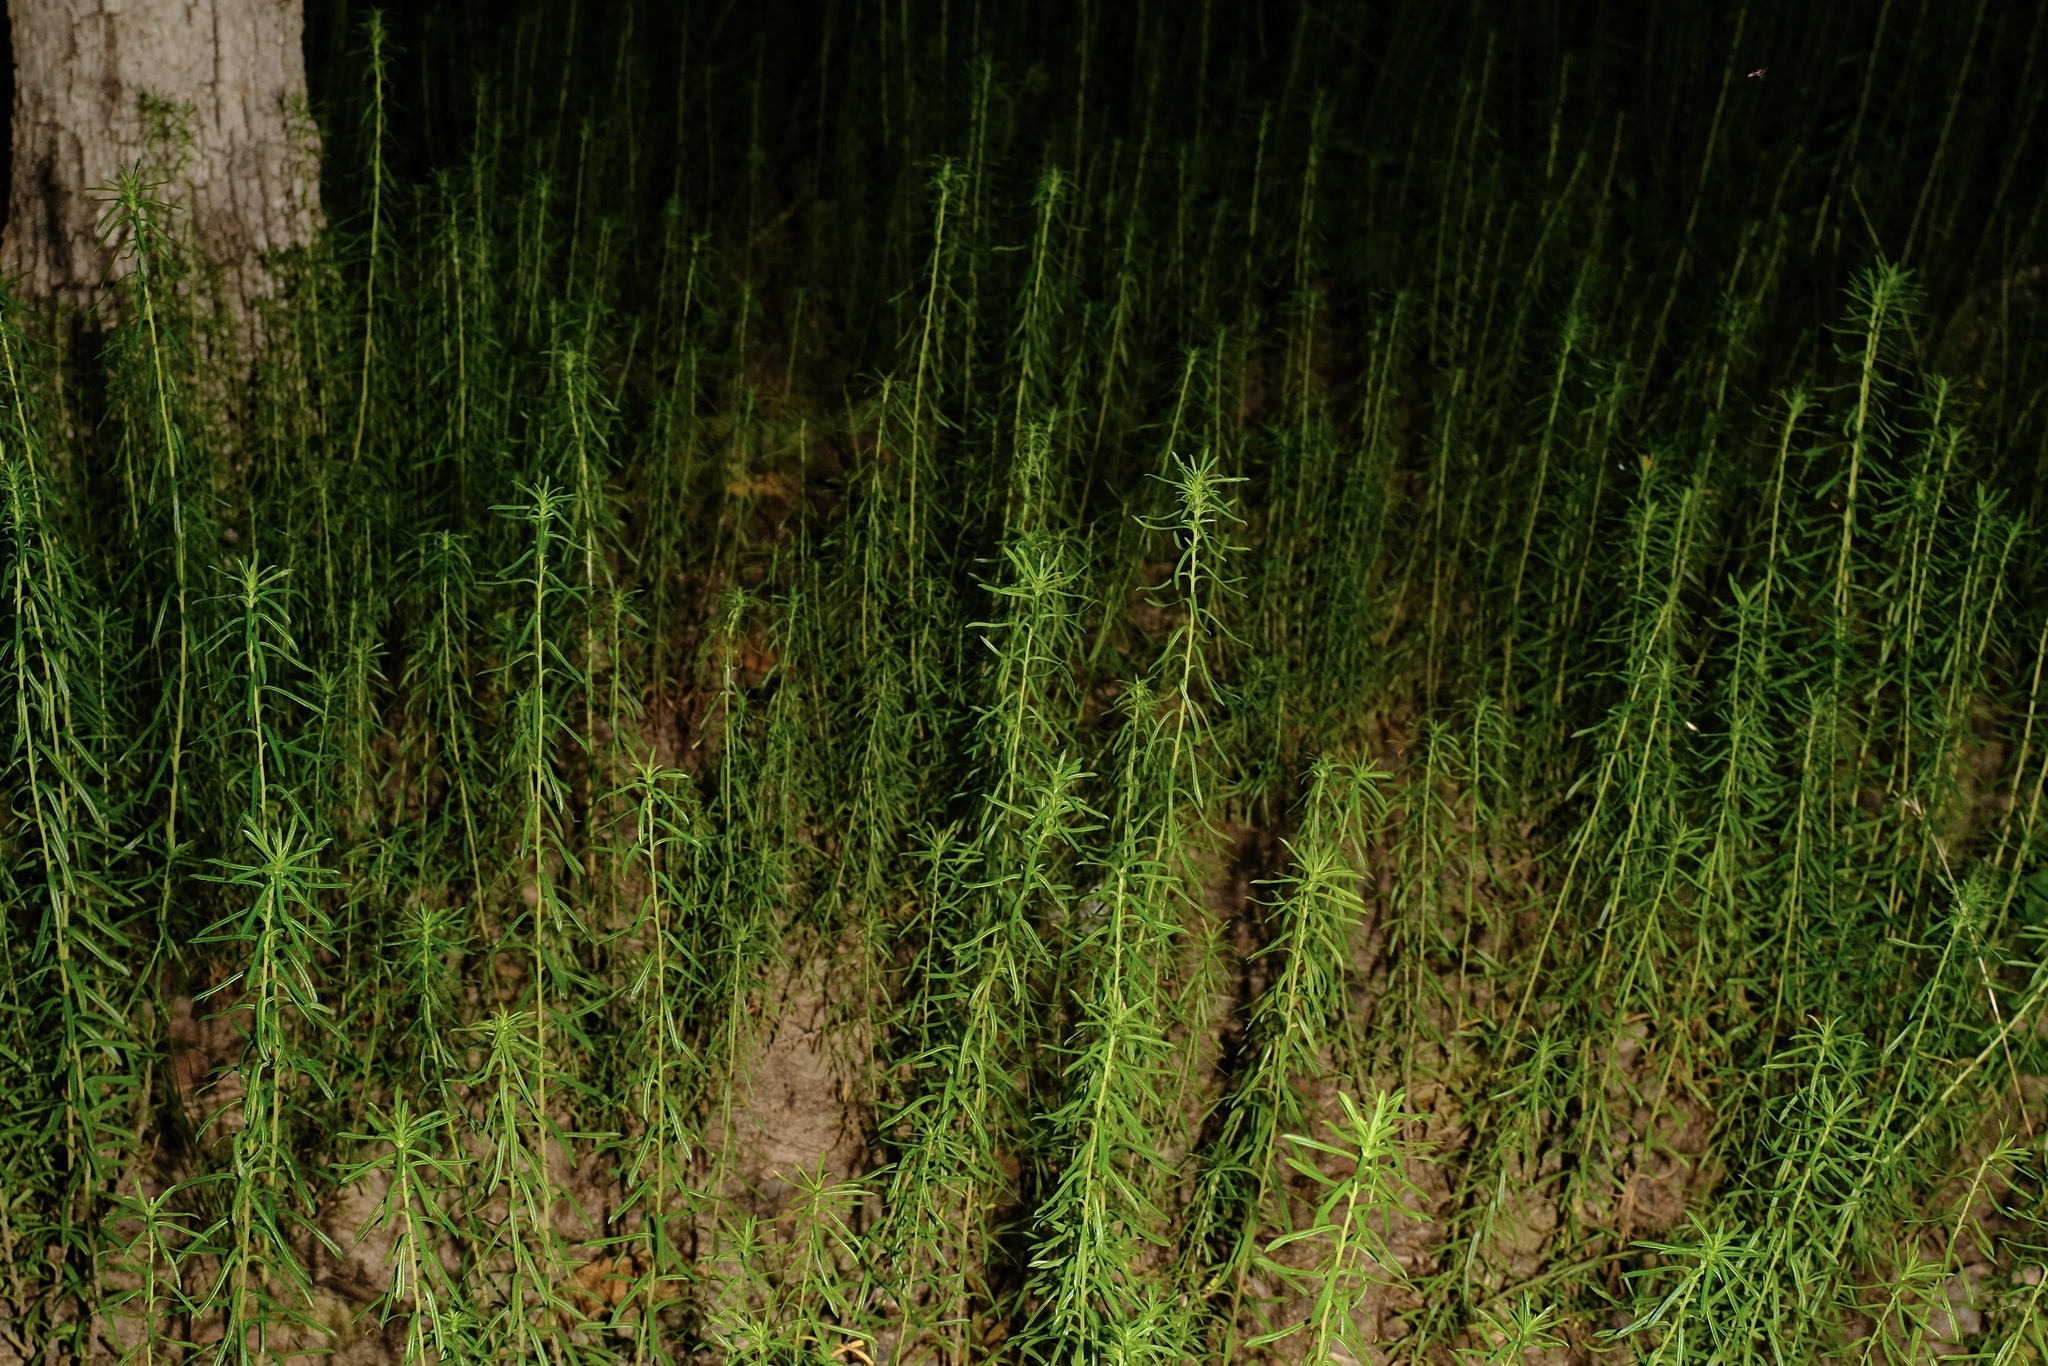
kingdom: Plantae
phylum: Tracheophyta
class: Magnoliopsida
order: Asterales
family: Asteraceae
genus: Ionactis
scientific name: Ionactis linariifolia
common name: Flax-leaf aster
